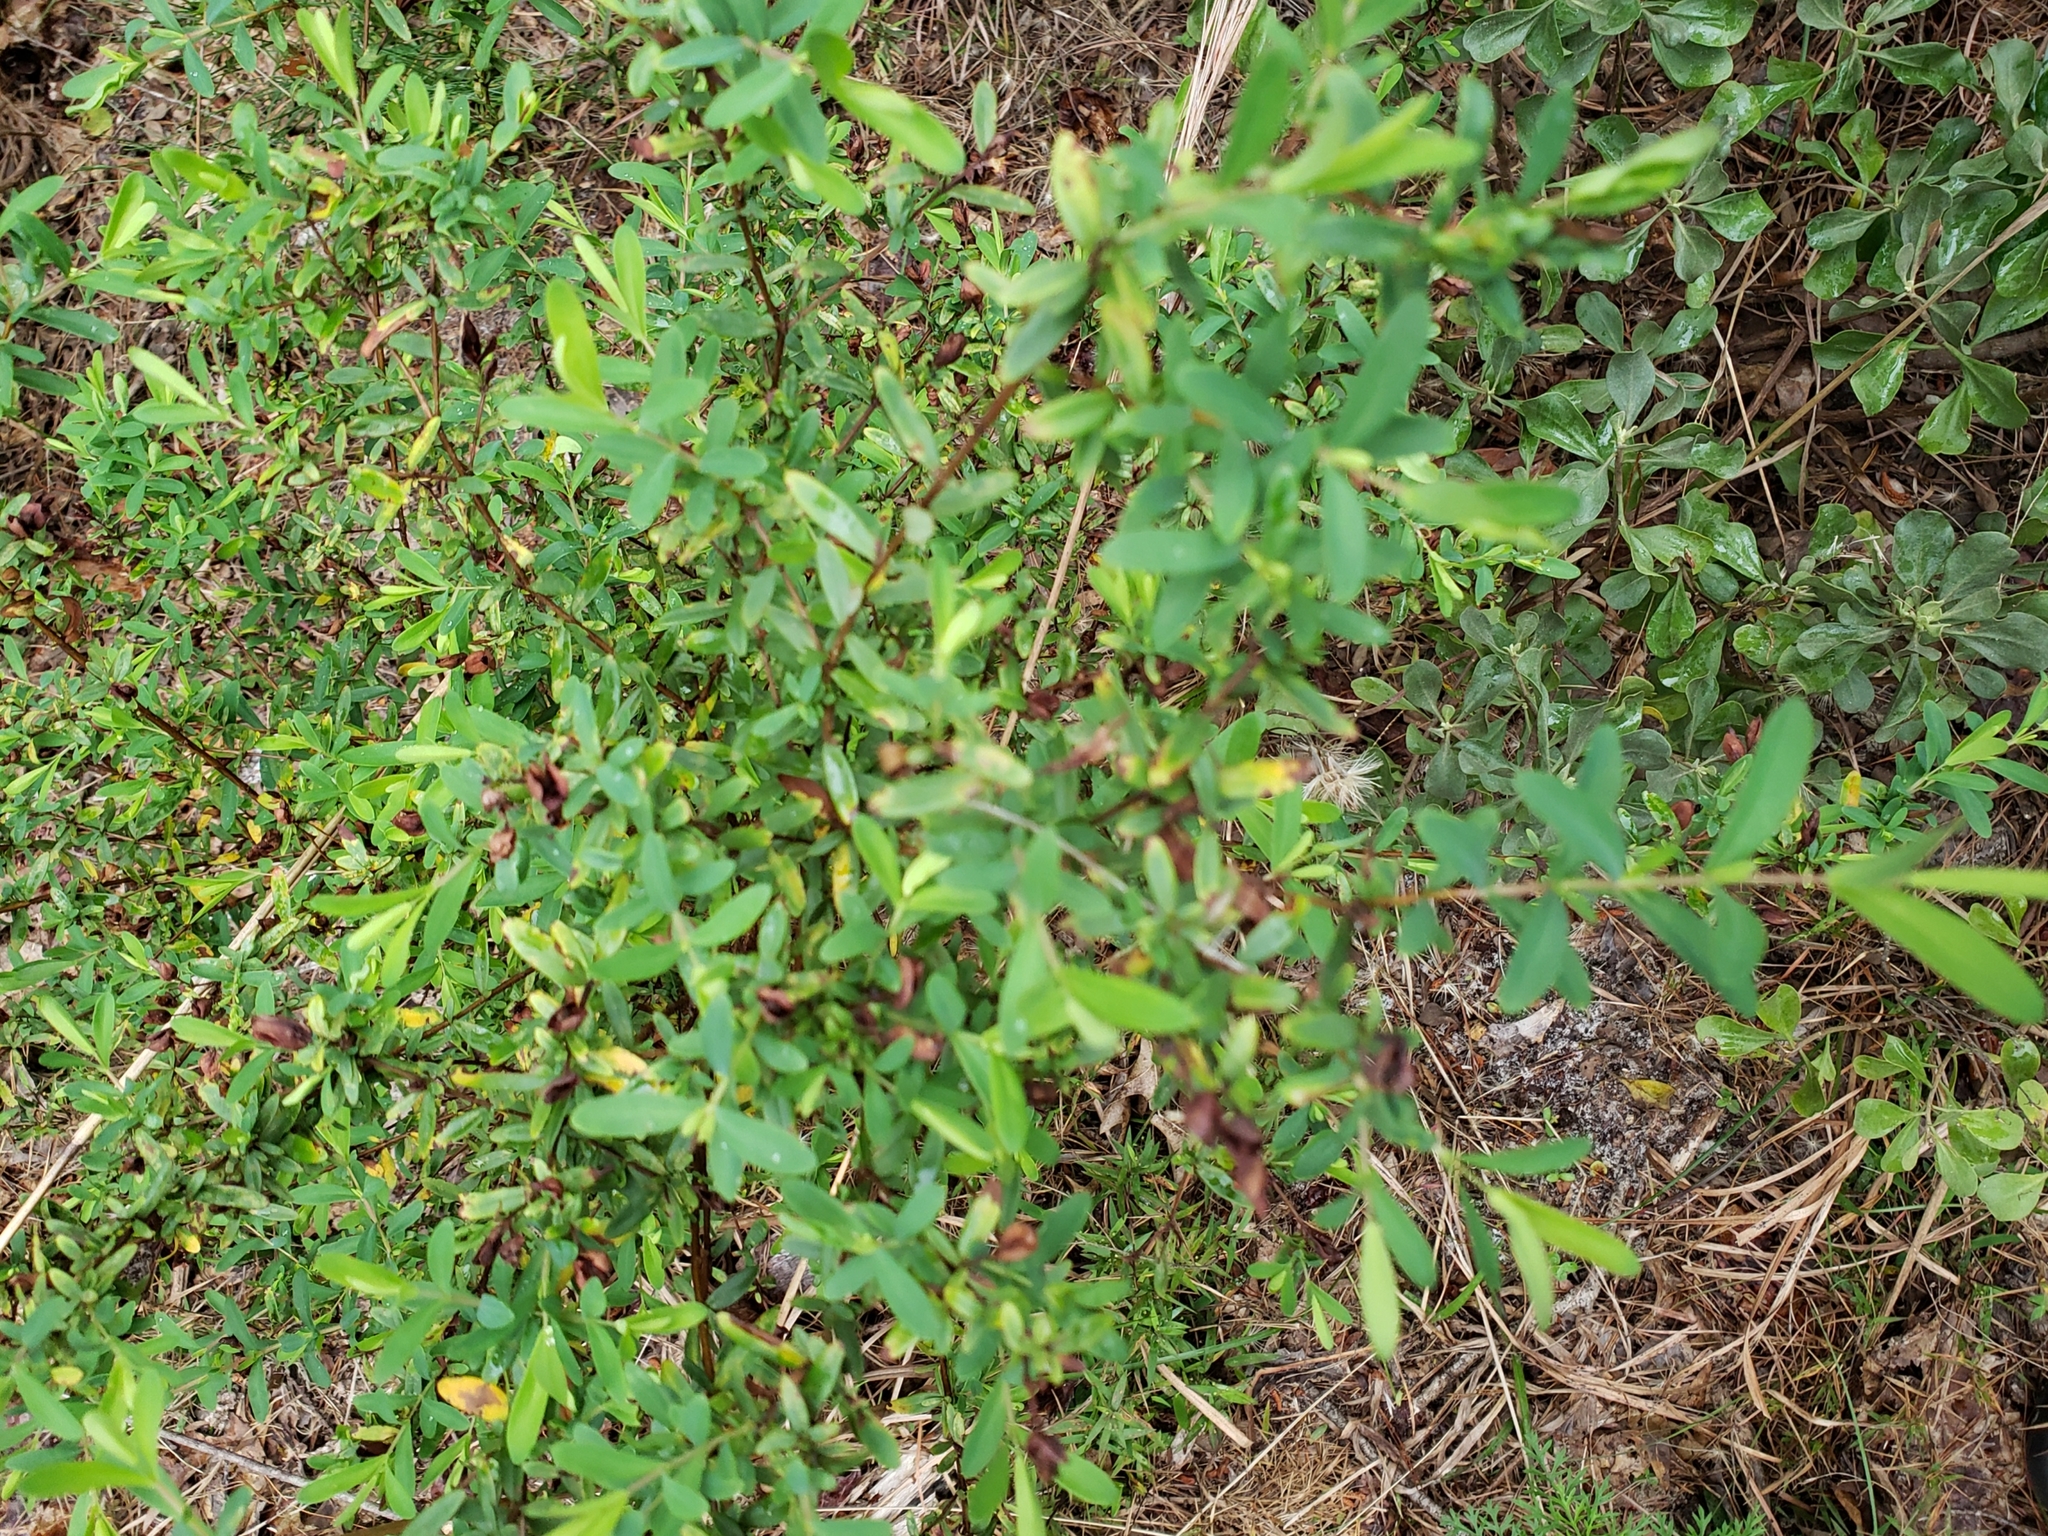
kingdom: Plantae
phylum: Tracheophyta
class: Magnoliopsida
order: Malpighiales
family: Hypericaceae
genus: Hypericum
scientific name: Hypericum hypericoides
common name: St. andrew's cross
